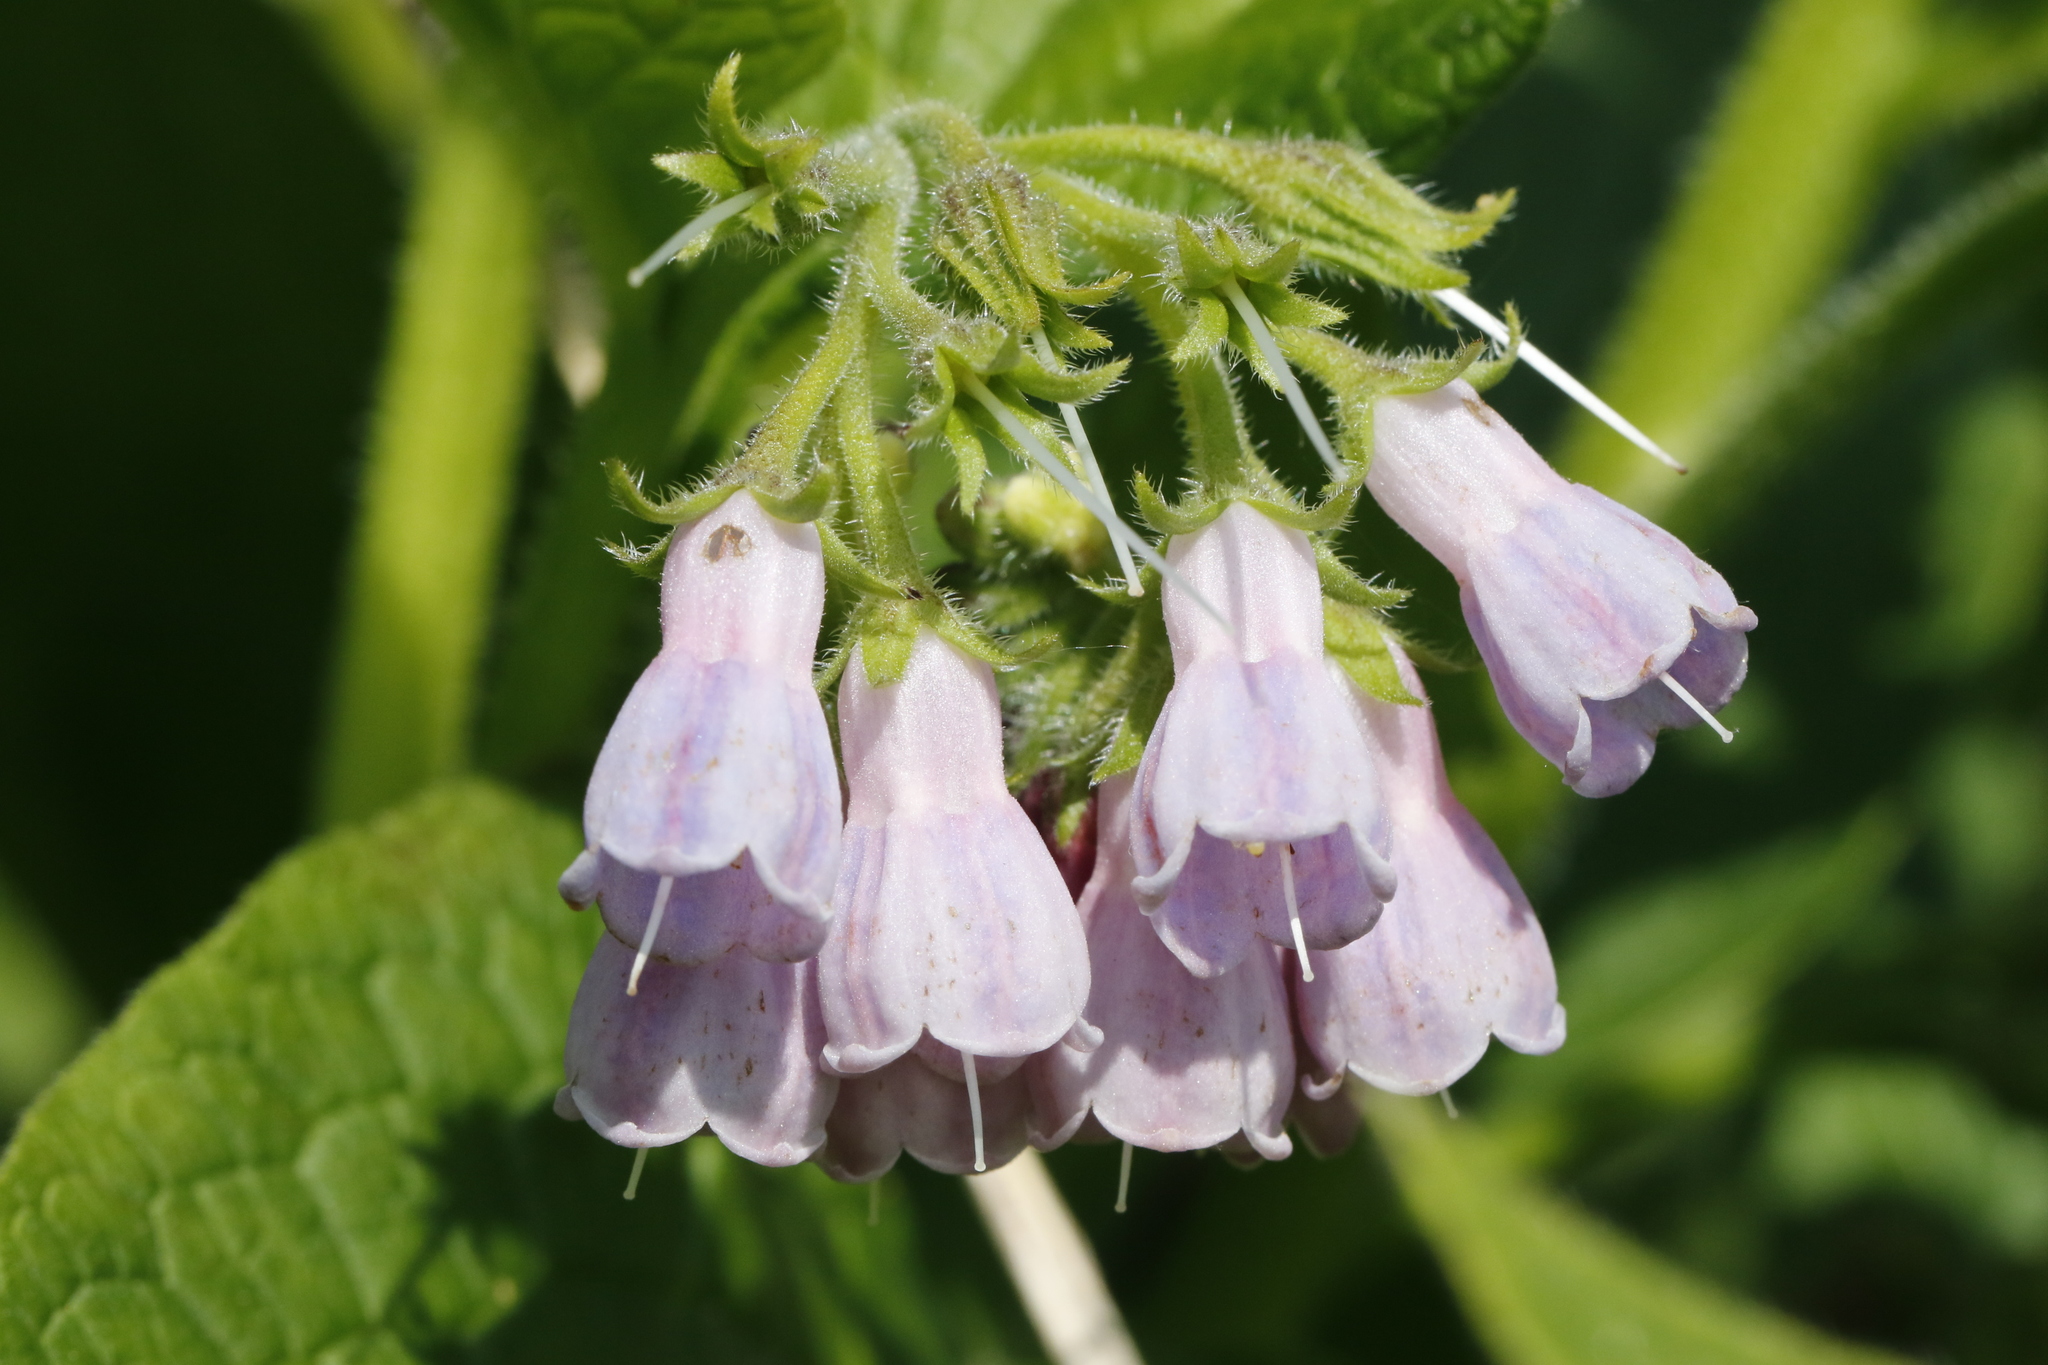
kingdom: Plantae
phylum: Tracheophyta
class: Magnoliopsida
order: Boraginales
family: Boraginaceae
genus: Symphytum
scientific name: Symphytum uplandicum
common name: Russian comfrey
